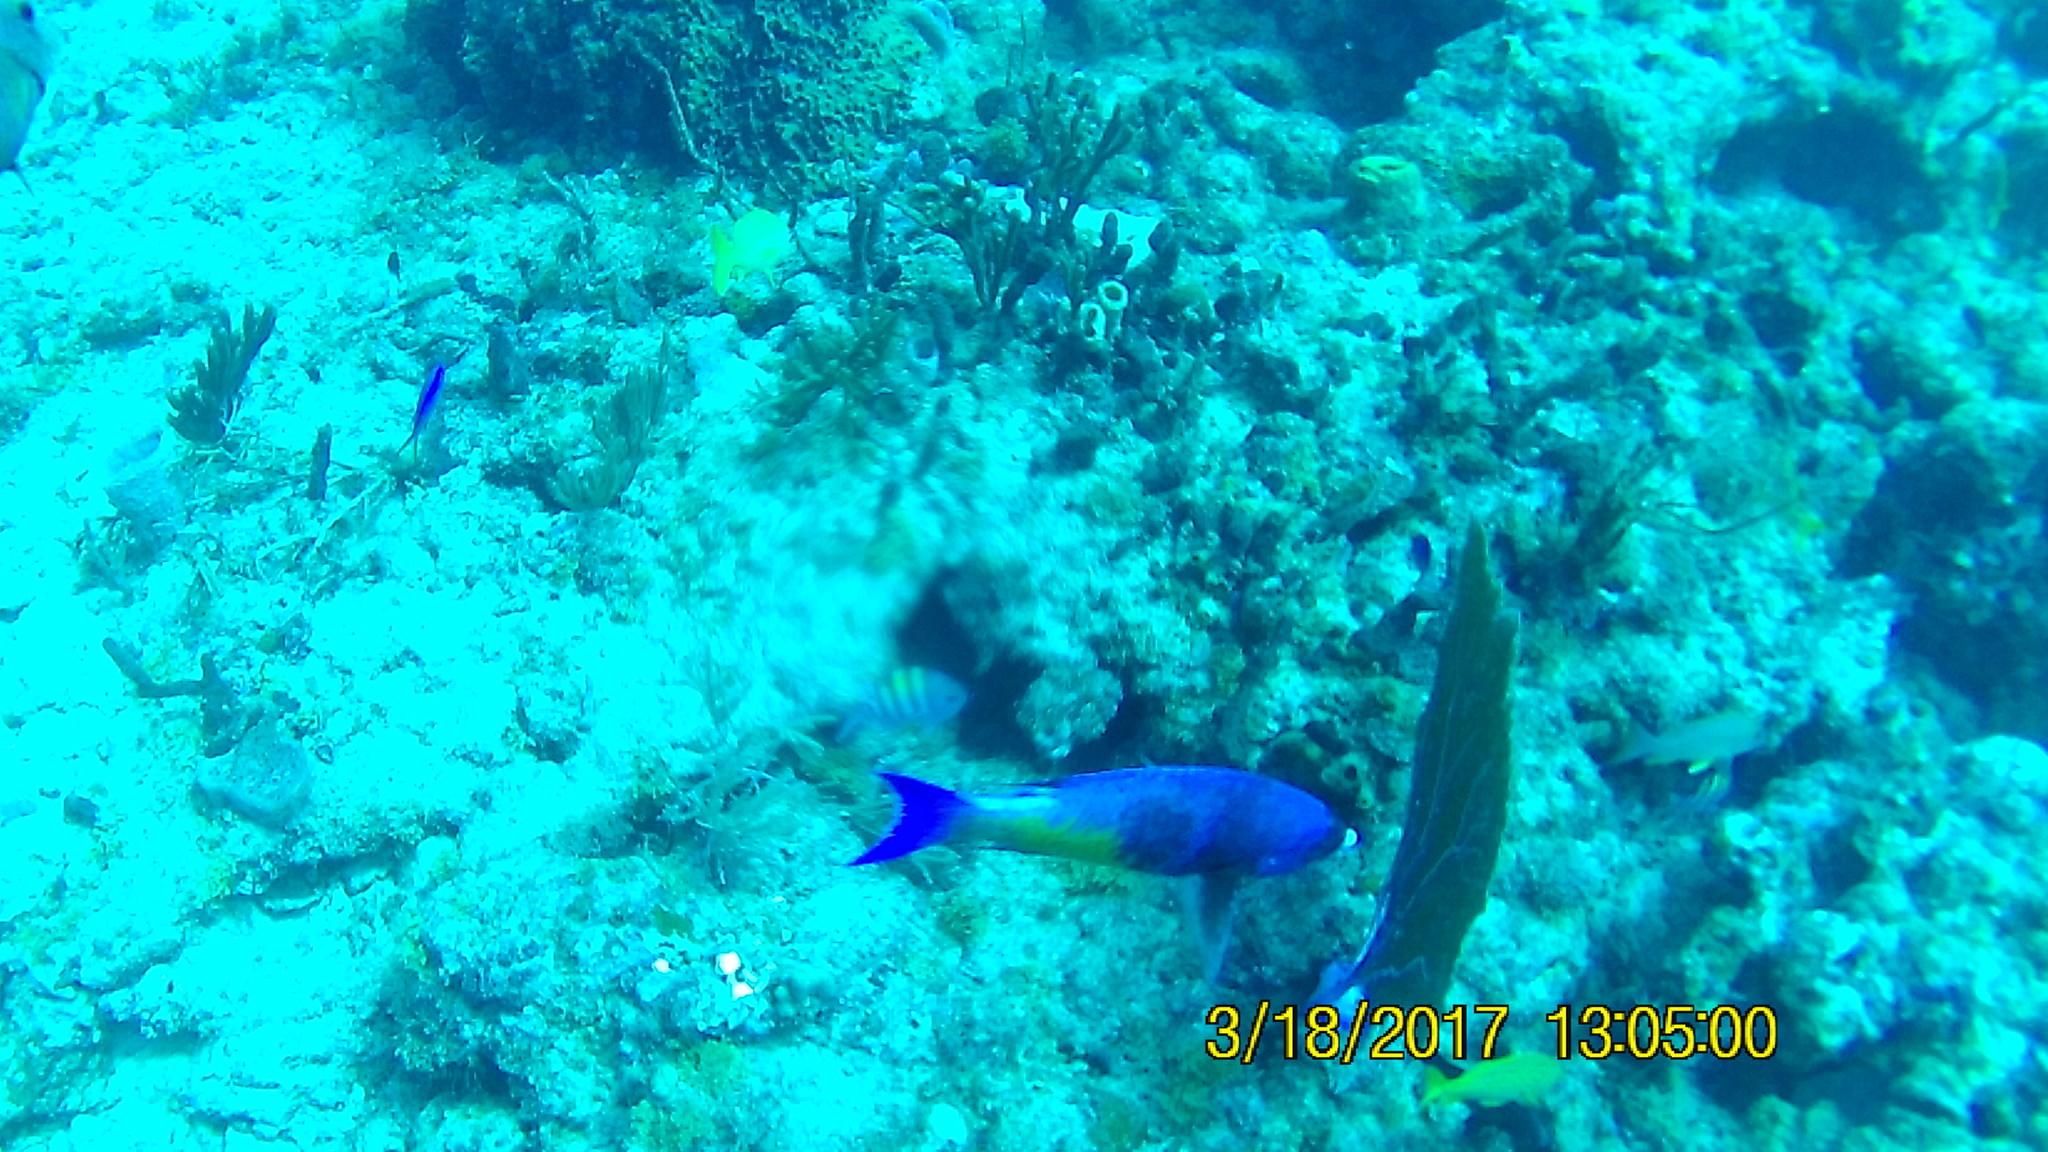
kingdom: Animalia
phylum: Chordata
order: Perciformes
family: Labridae
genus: Bodianus
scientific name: Bodianus
